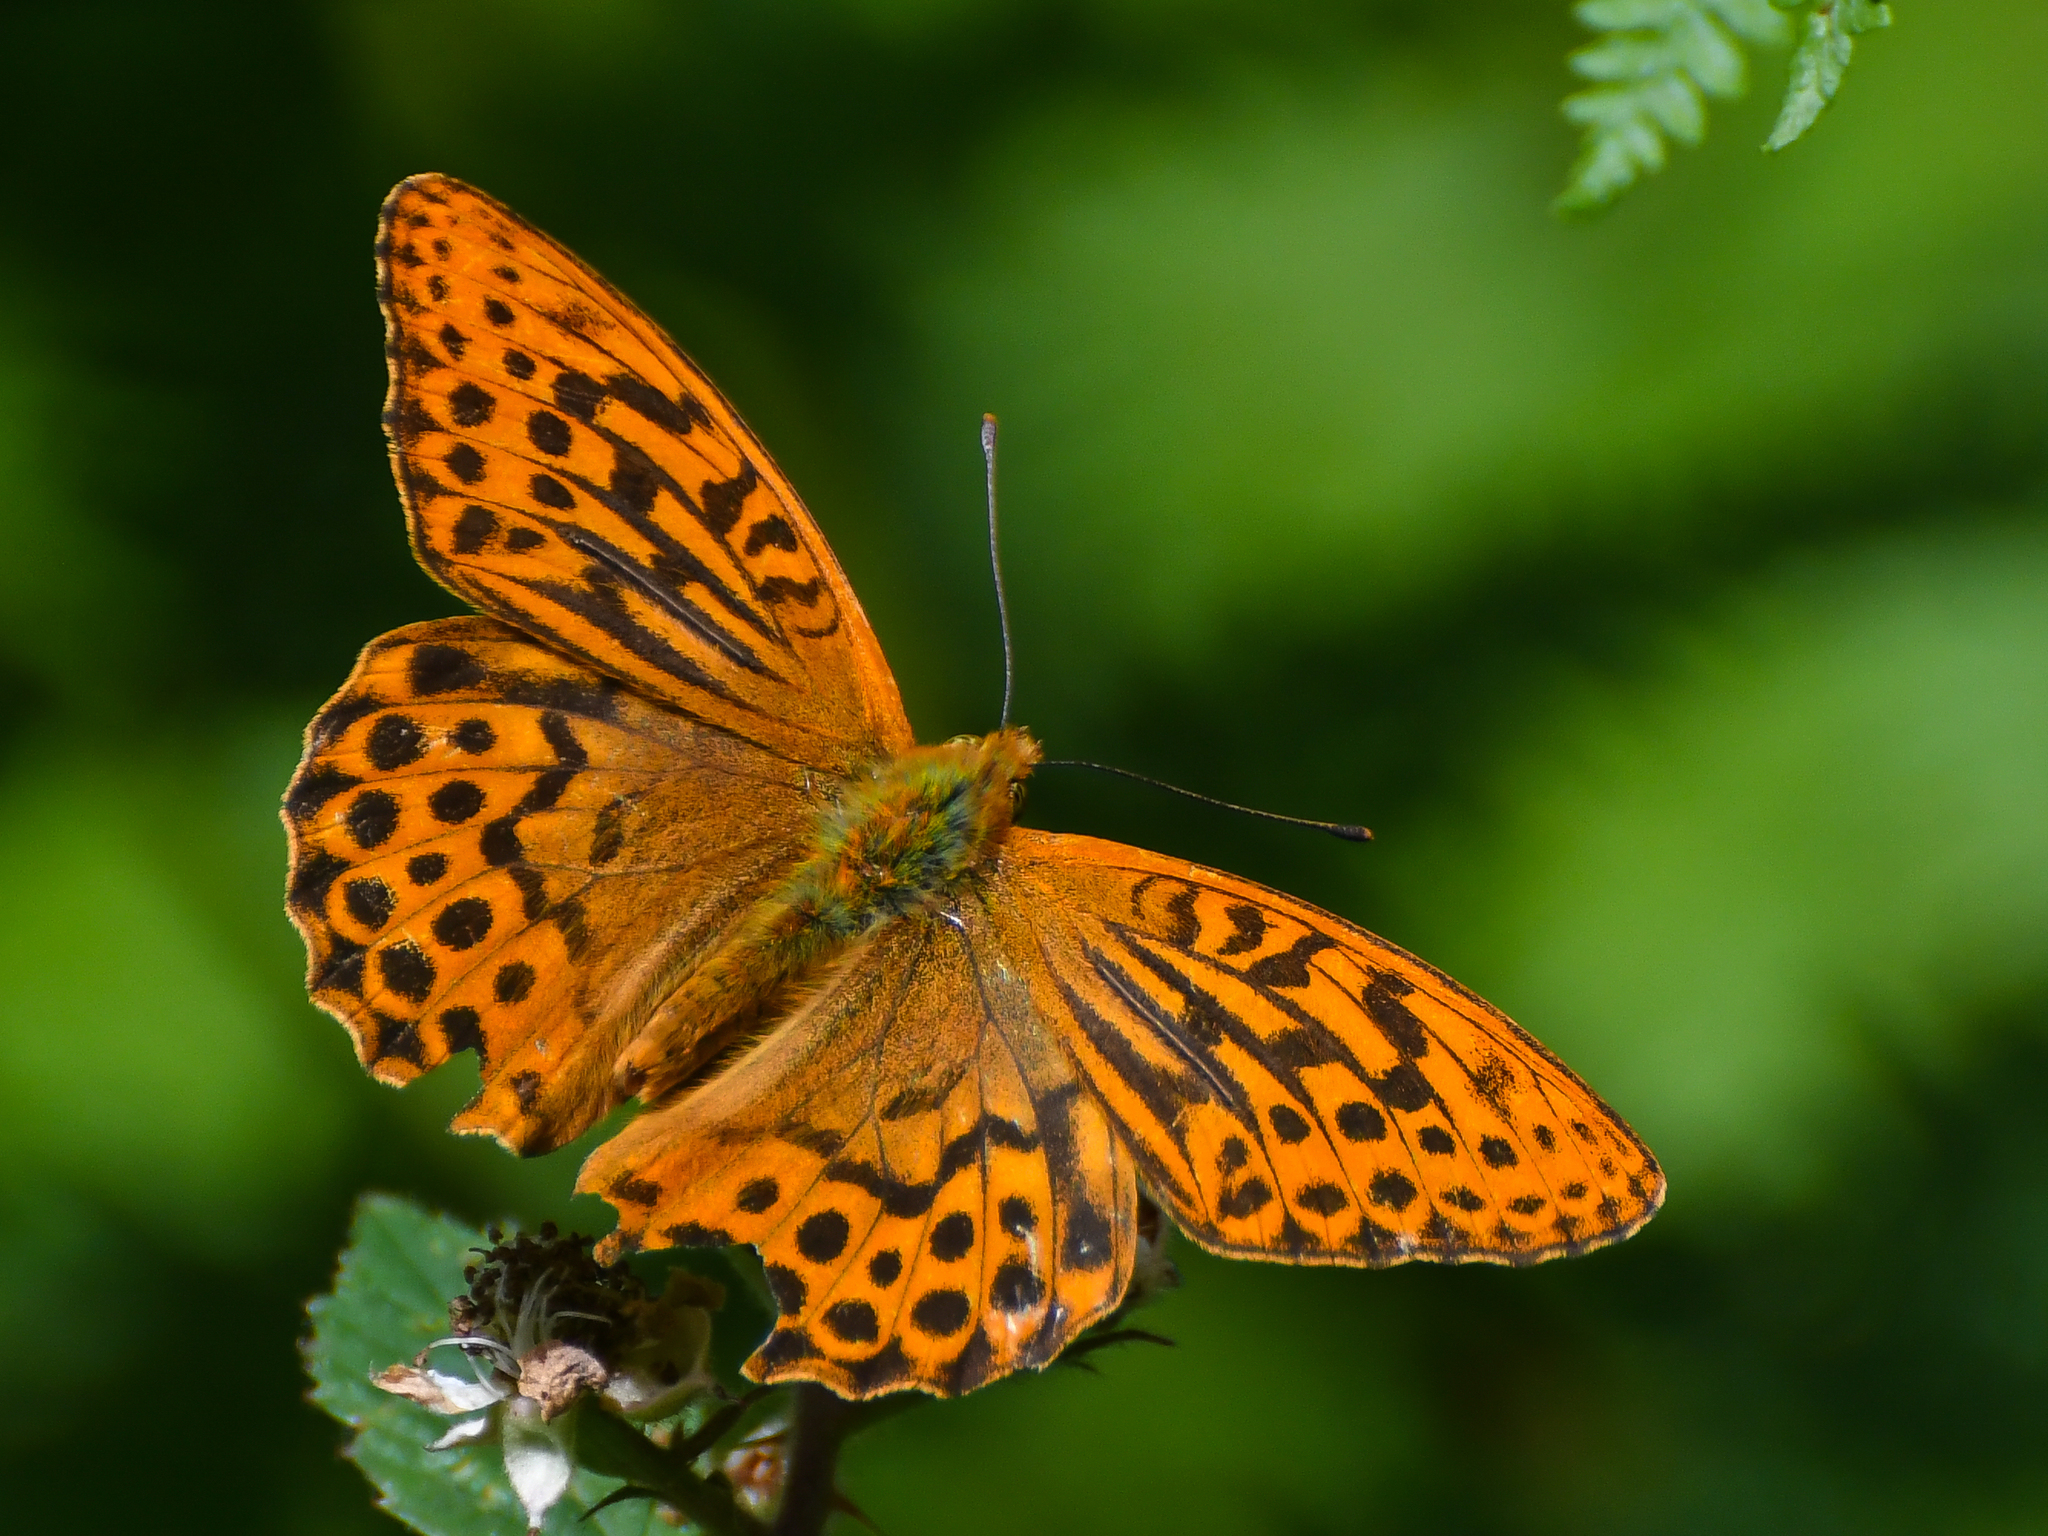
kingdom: Animalia
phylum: Arthropoda
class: Insecta
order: Lepidoptera
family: Nymphalidae
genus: Argynnis
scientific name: Argynnis paphia
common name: Silver-washed fritillary
